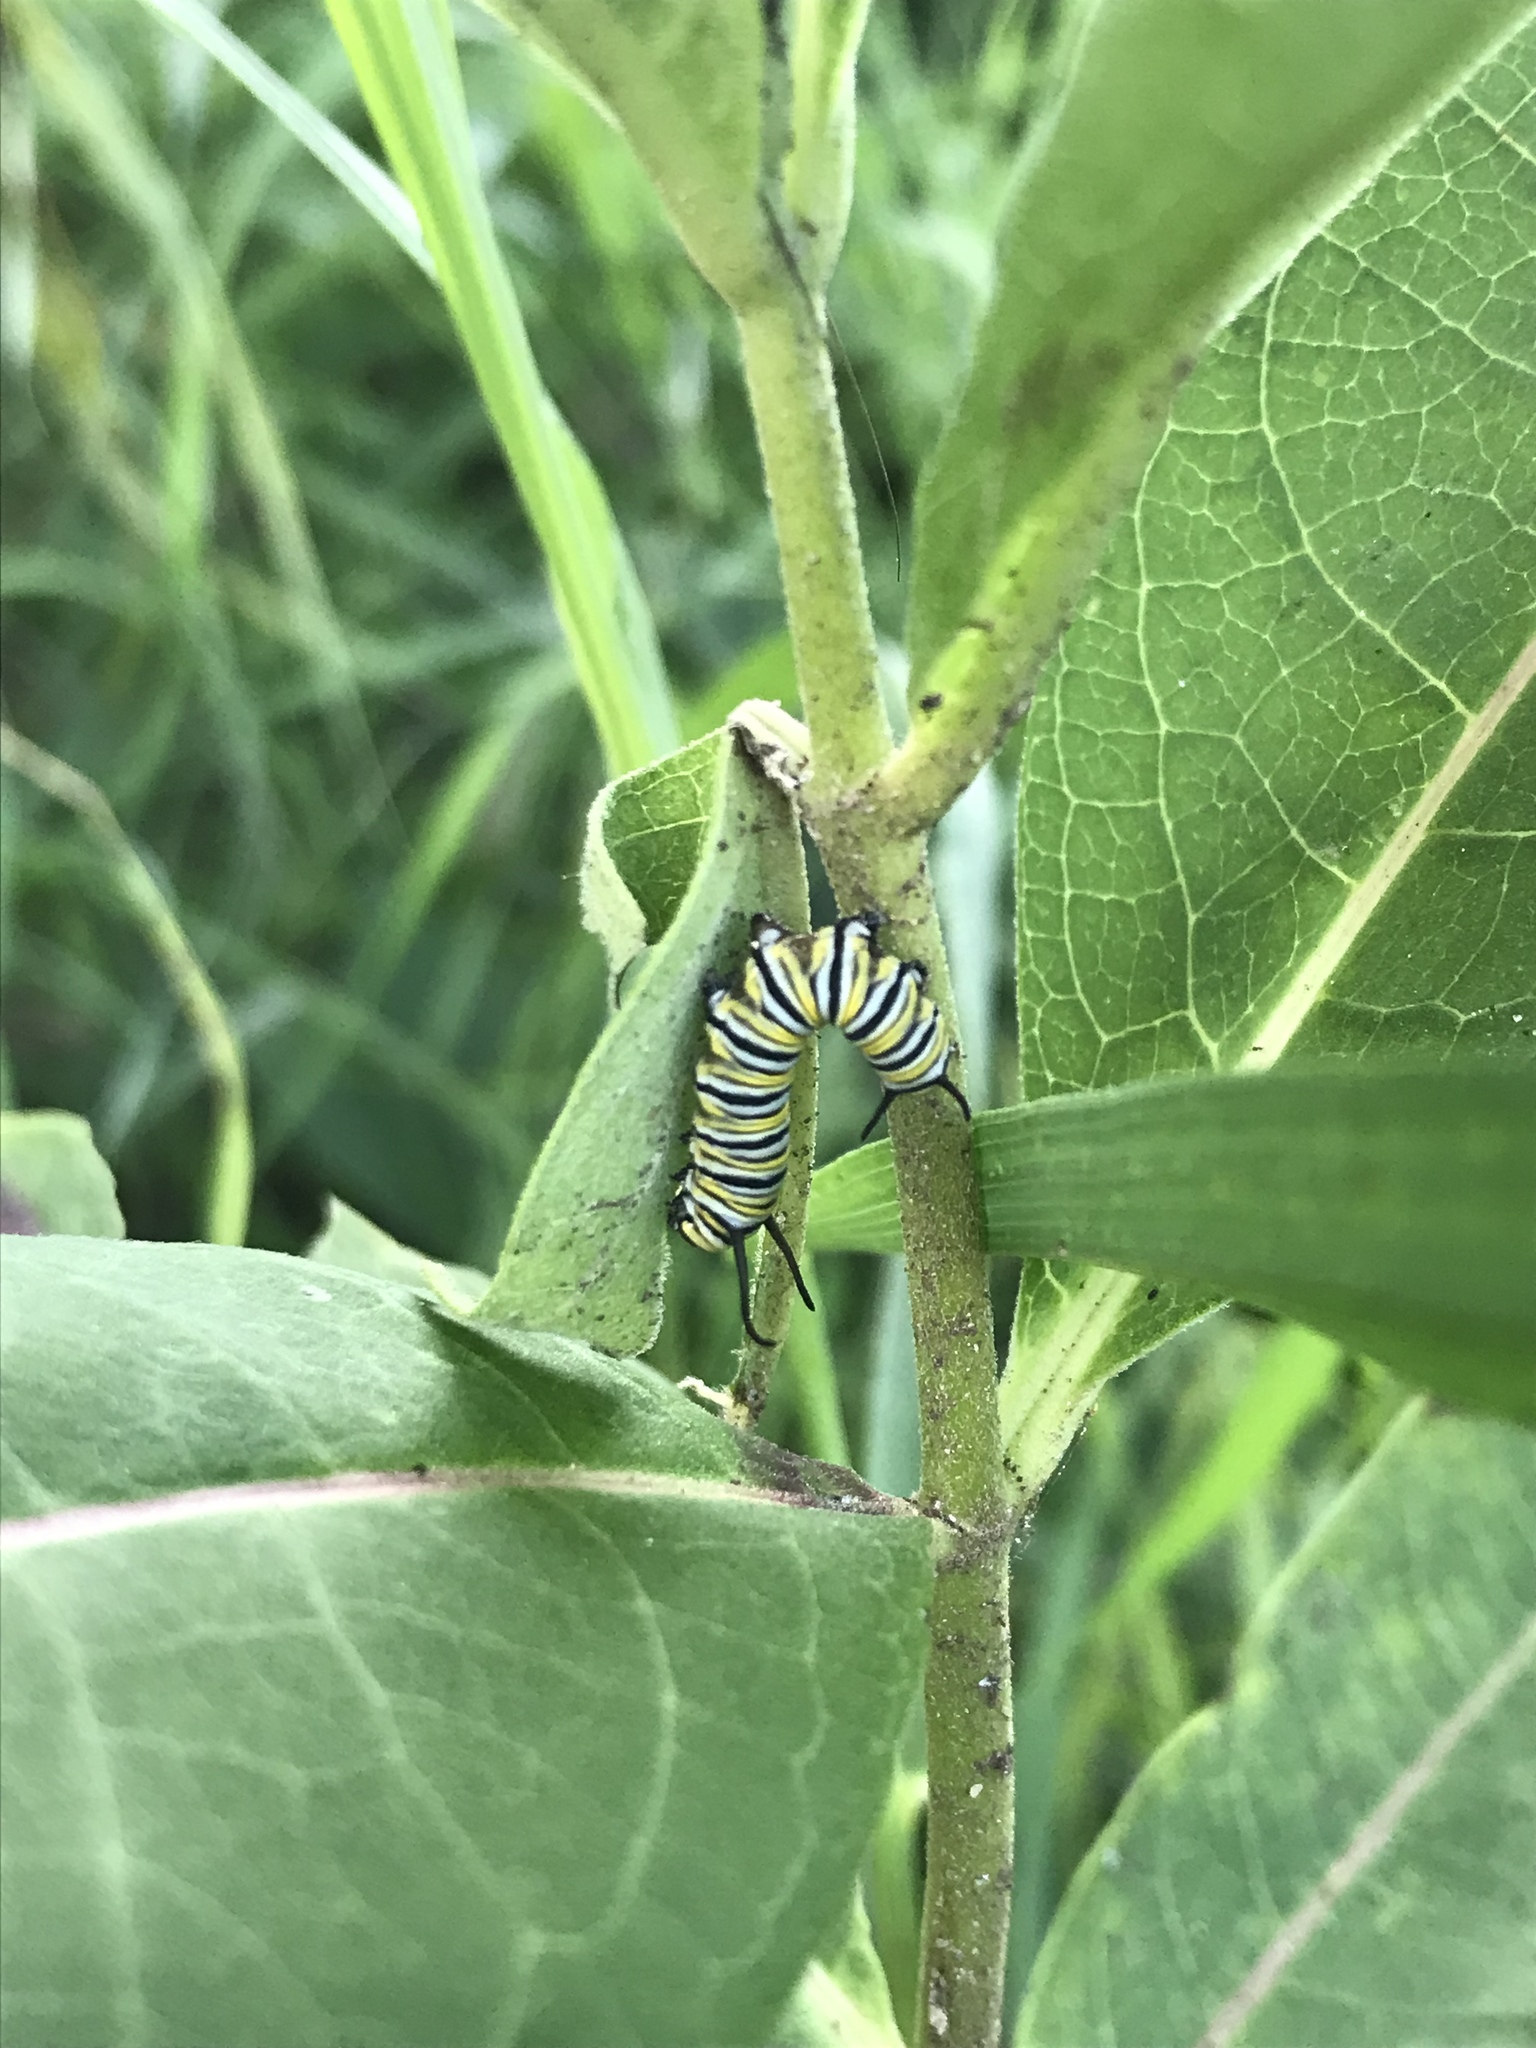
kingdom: Animalia
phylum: Arthropoda
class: Insecta
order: Lepidoptera
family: Nymphalidae
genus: Danaus
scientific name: Danaus plexippus
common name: Monarch
